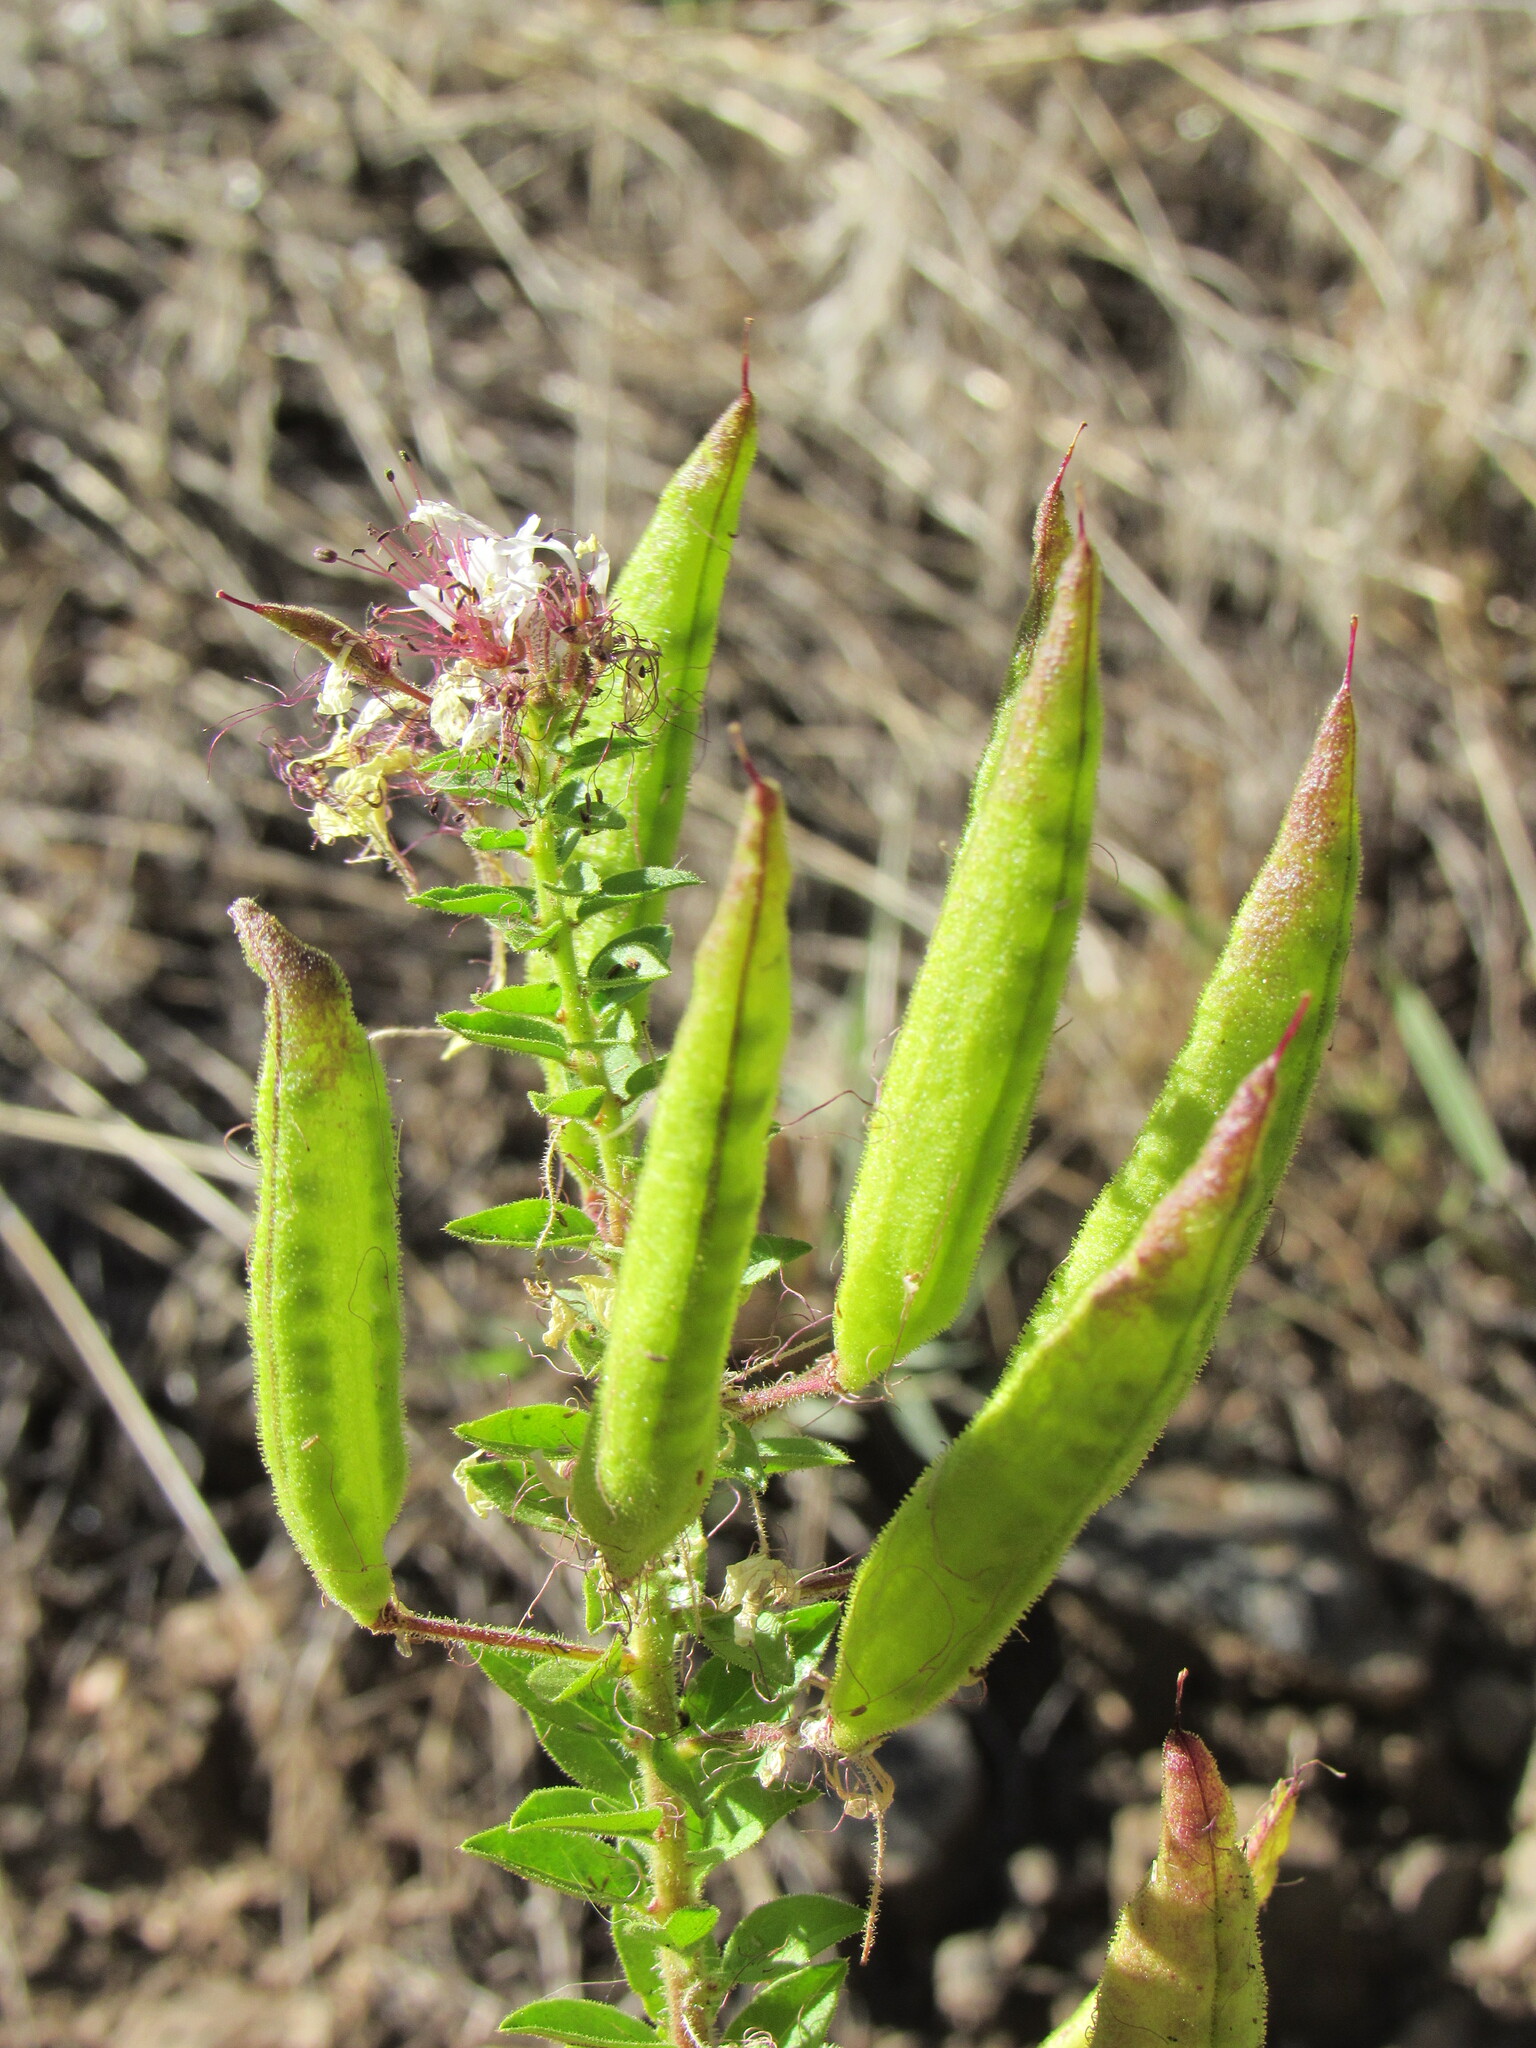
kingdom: Plantae
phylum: Tracheophyta
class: Magnoliopsida
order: Brassicales
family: Cleomaceae
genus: Polanisia
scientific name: Polanisia dodecandra
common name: Clammyweed
